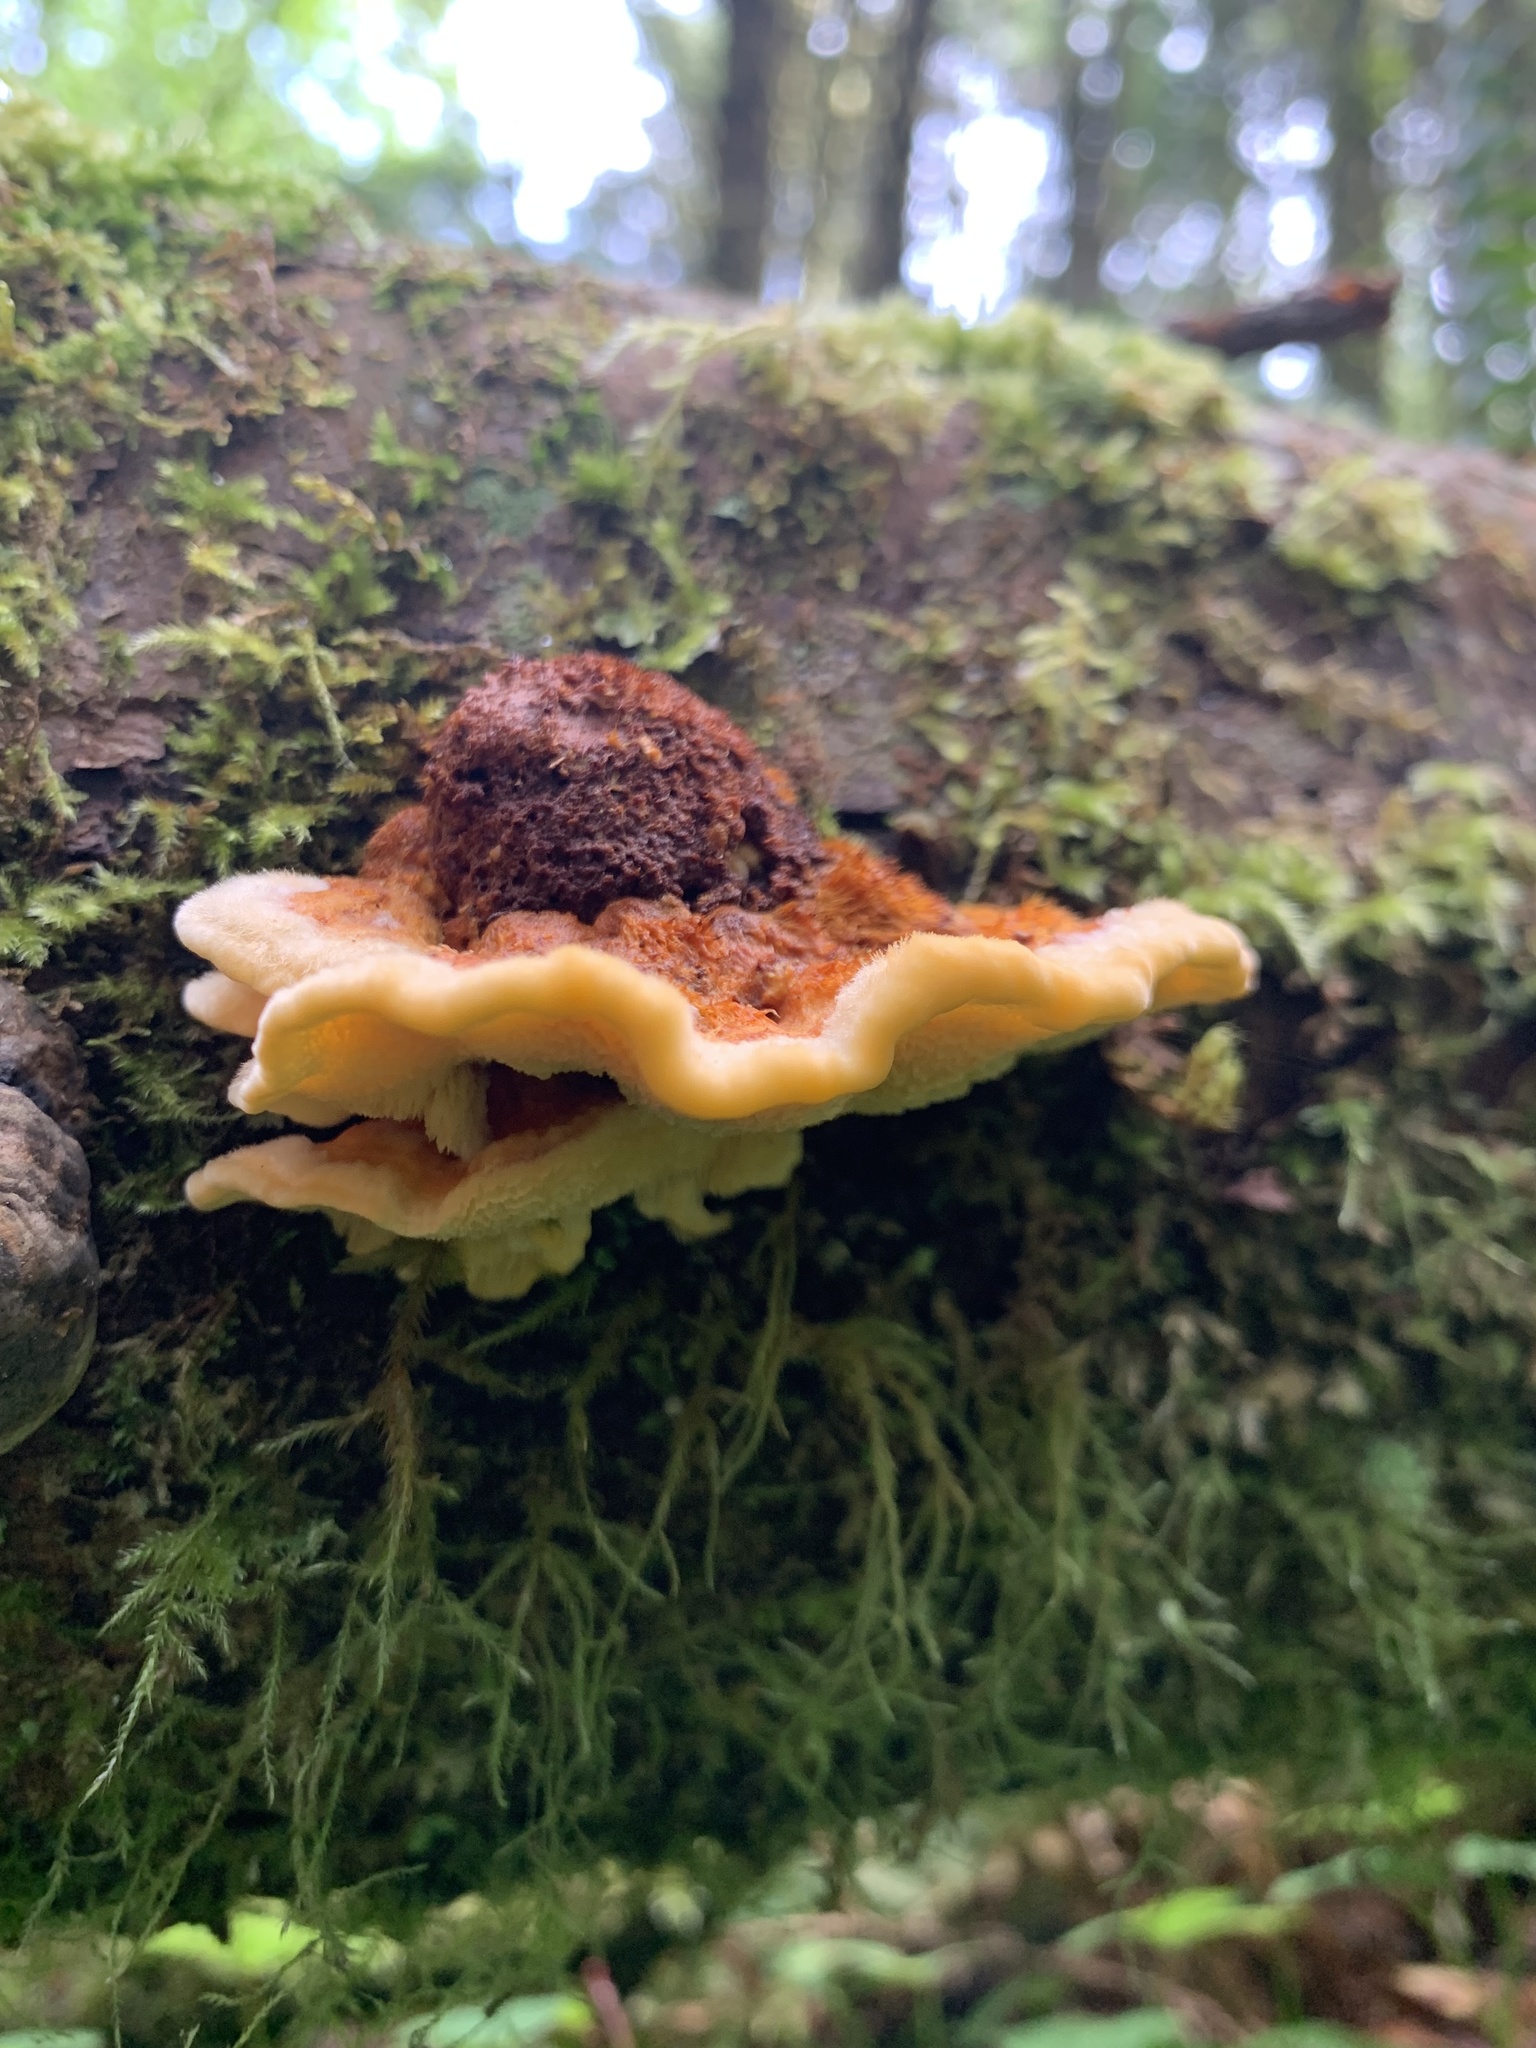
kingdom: Fungi
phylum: Basidiomycota
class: Agaricomycetes
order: Polyporales
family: Pycnoporellaceae
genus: Pycnoporellus
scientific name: Pycnoporellus fulgens
